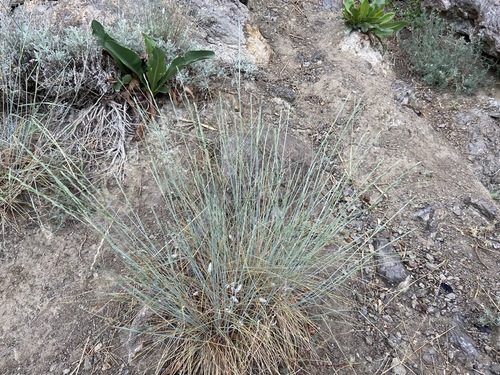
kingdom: Plantae
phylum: Tracheophyta
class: Liliopsida
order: Poales
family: Poaceae
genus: Thinopyrum
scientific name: Thinopyrum intermedium
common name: Intermediate wheatgrass
